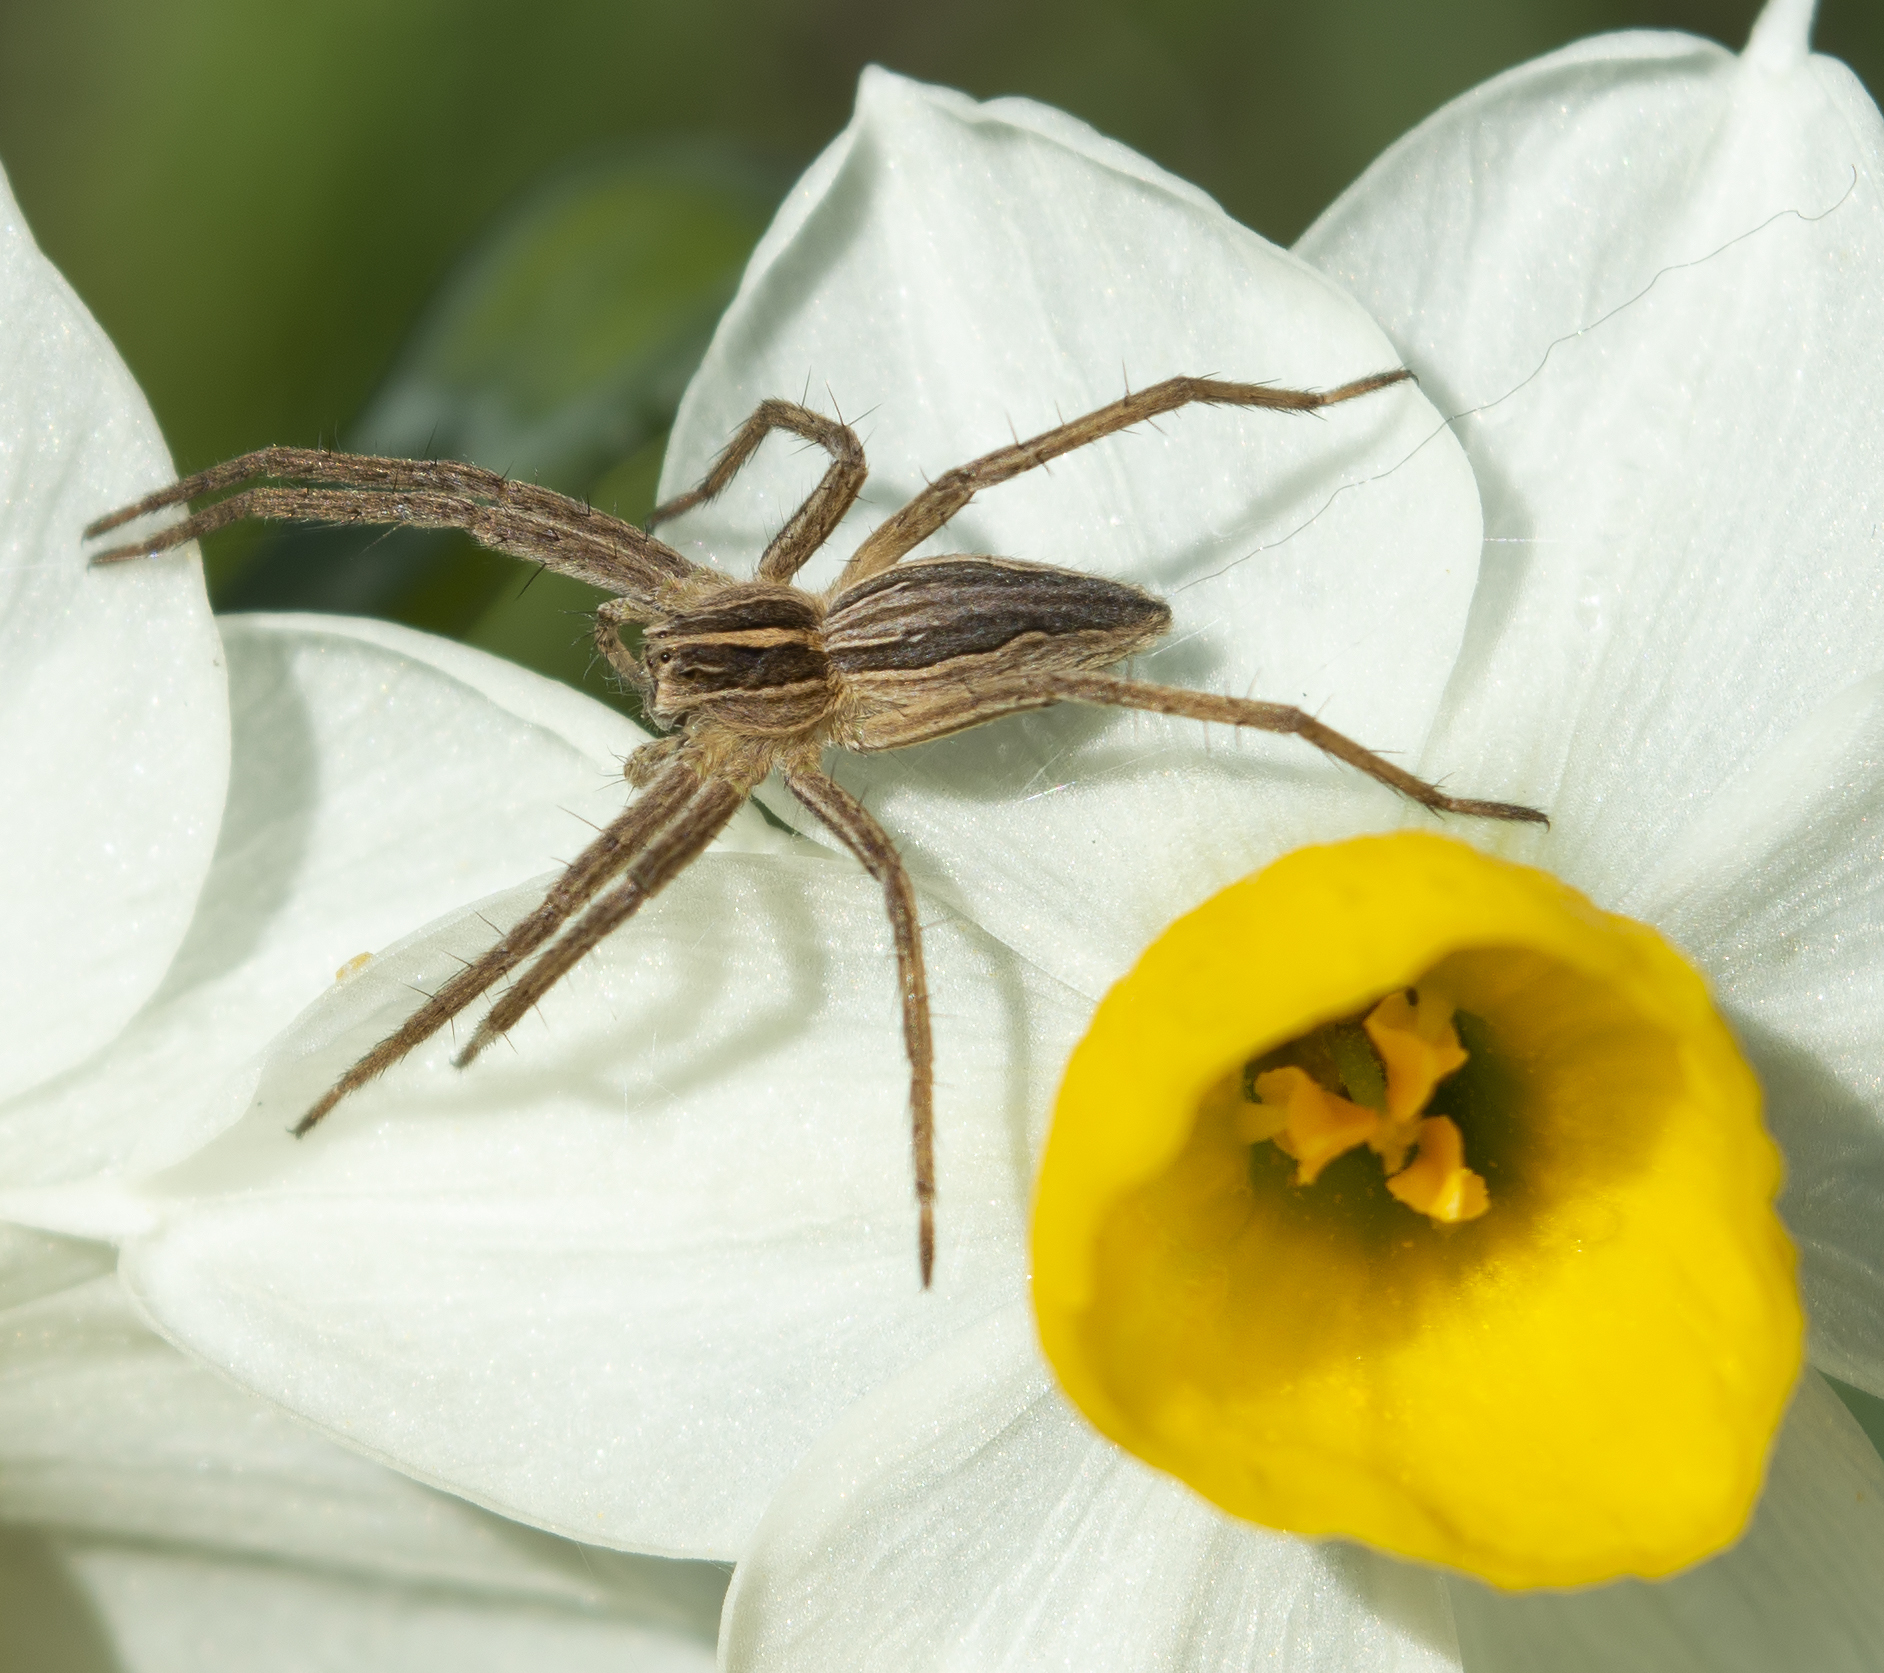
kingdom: Animalia
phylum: Arthropoda
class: Arachnida
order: Araneae
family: Pisauridae
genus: Pisaura
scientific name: Pisaura mirabilis
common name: Tent spider
